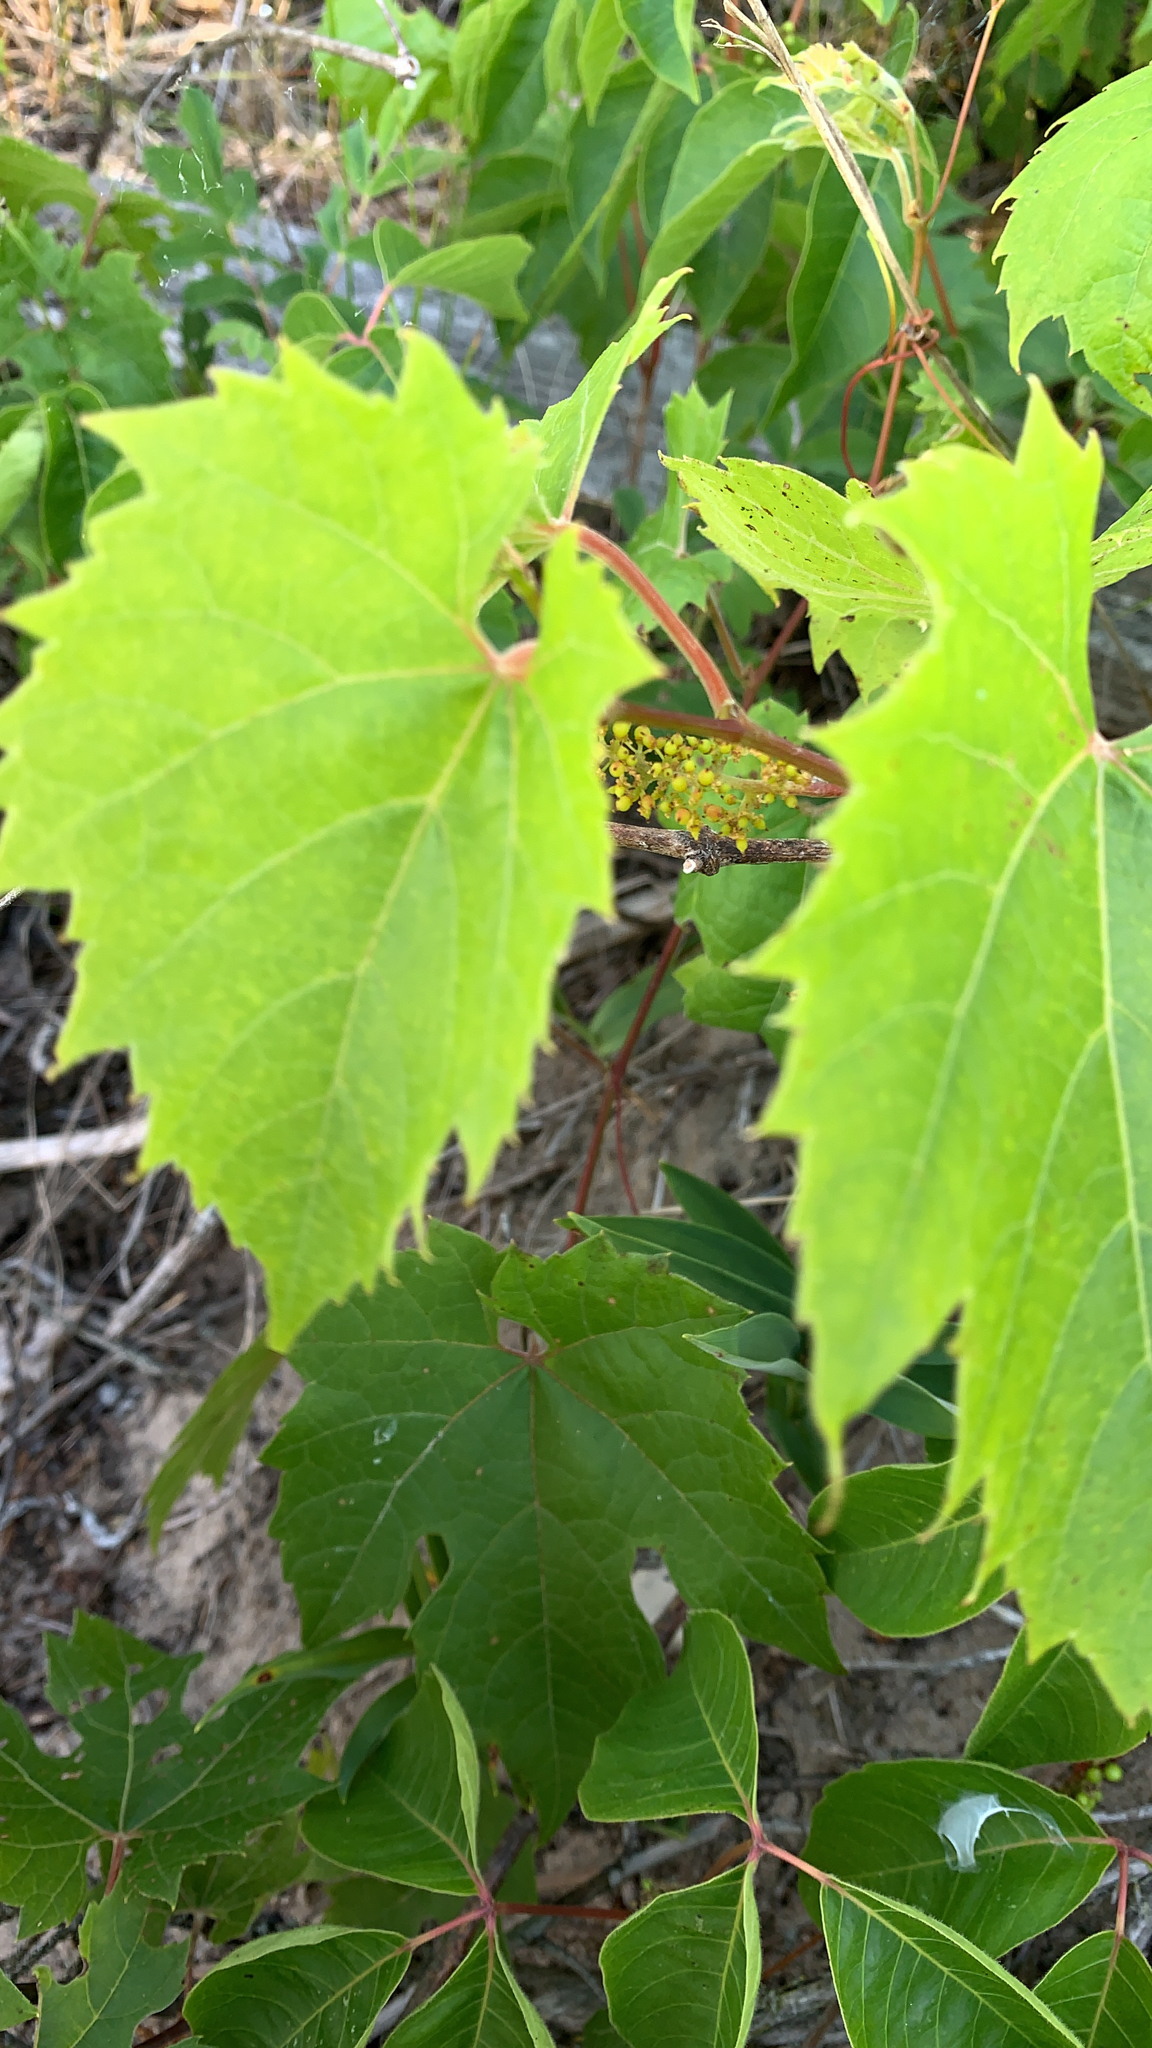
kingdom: Plantae
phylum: Tracheophyta
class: Magnoliopsida
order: Vitales
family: Vitaceae
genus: Vitis
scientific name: Vitis riparia
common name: Frost grape
